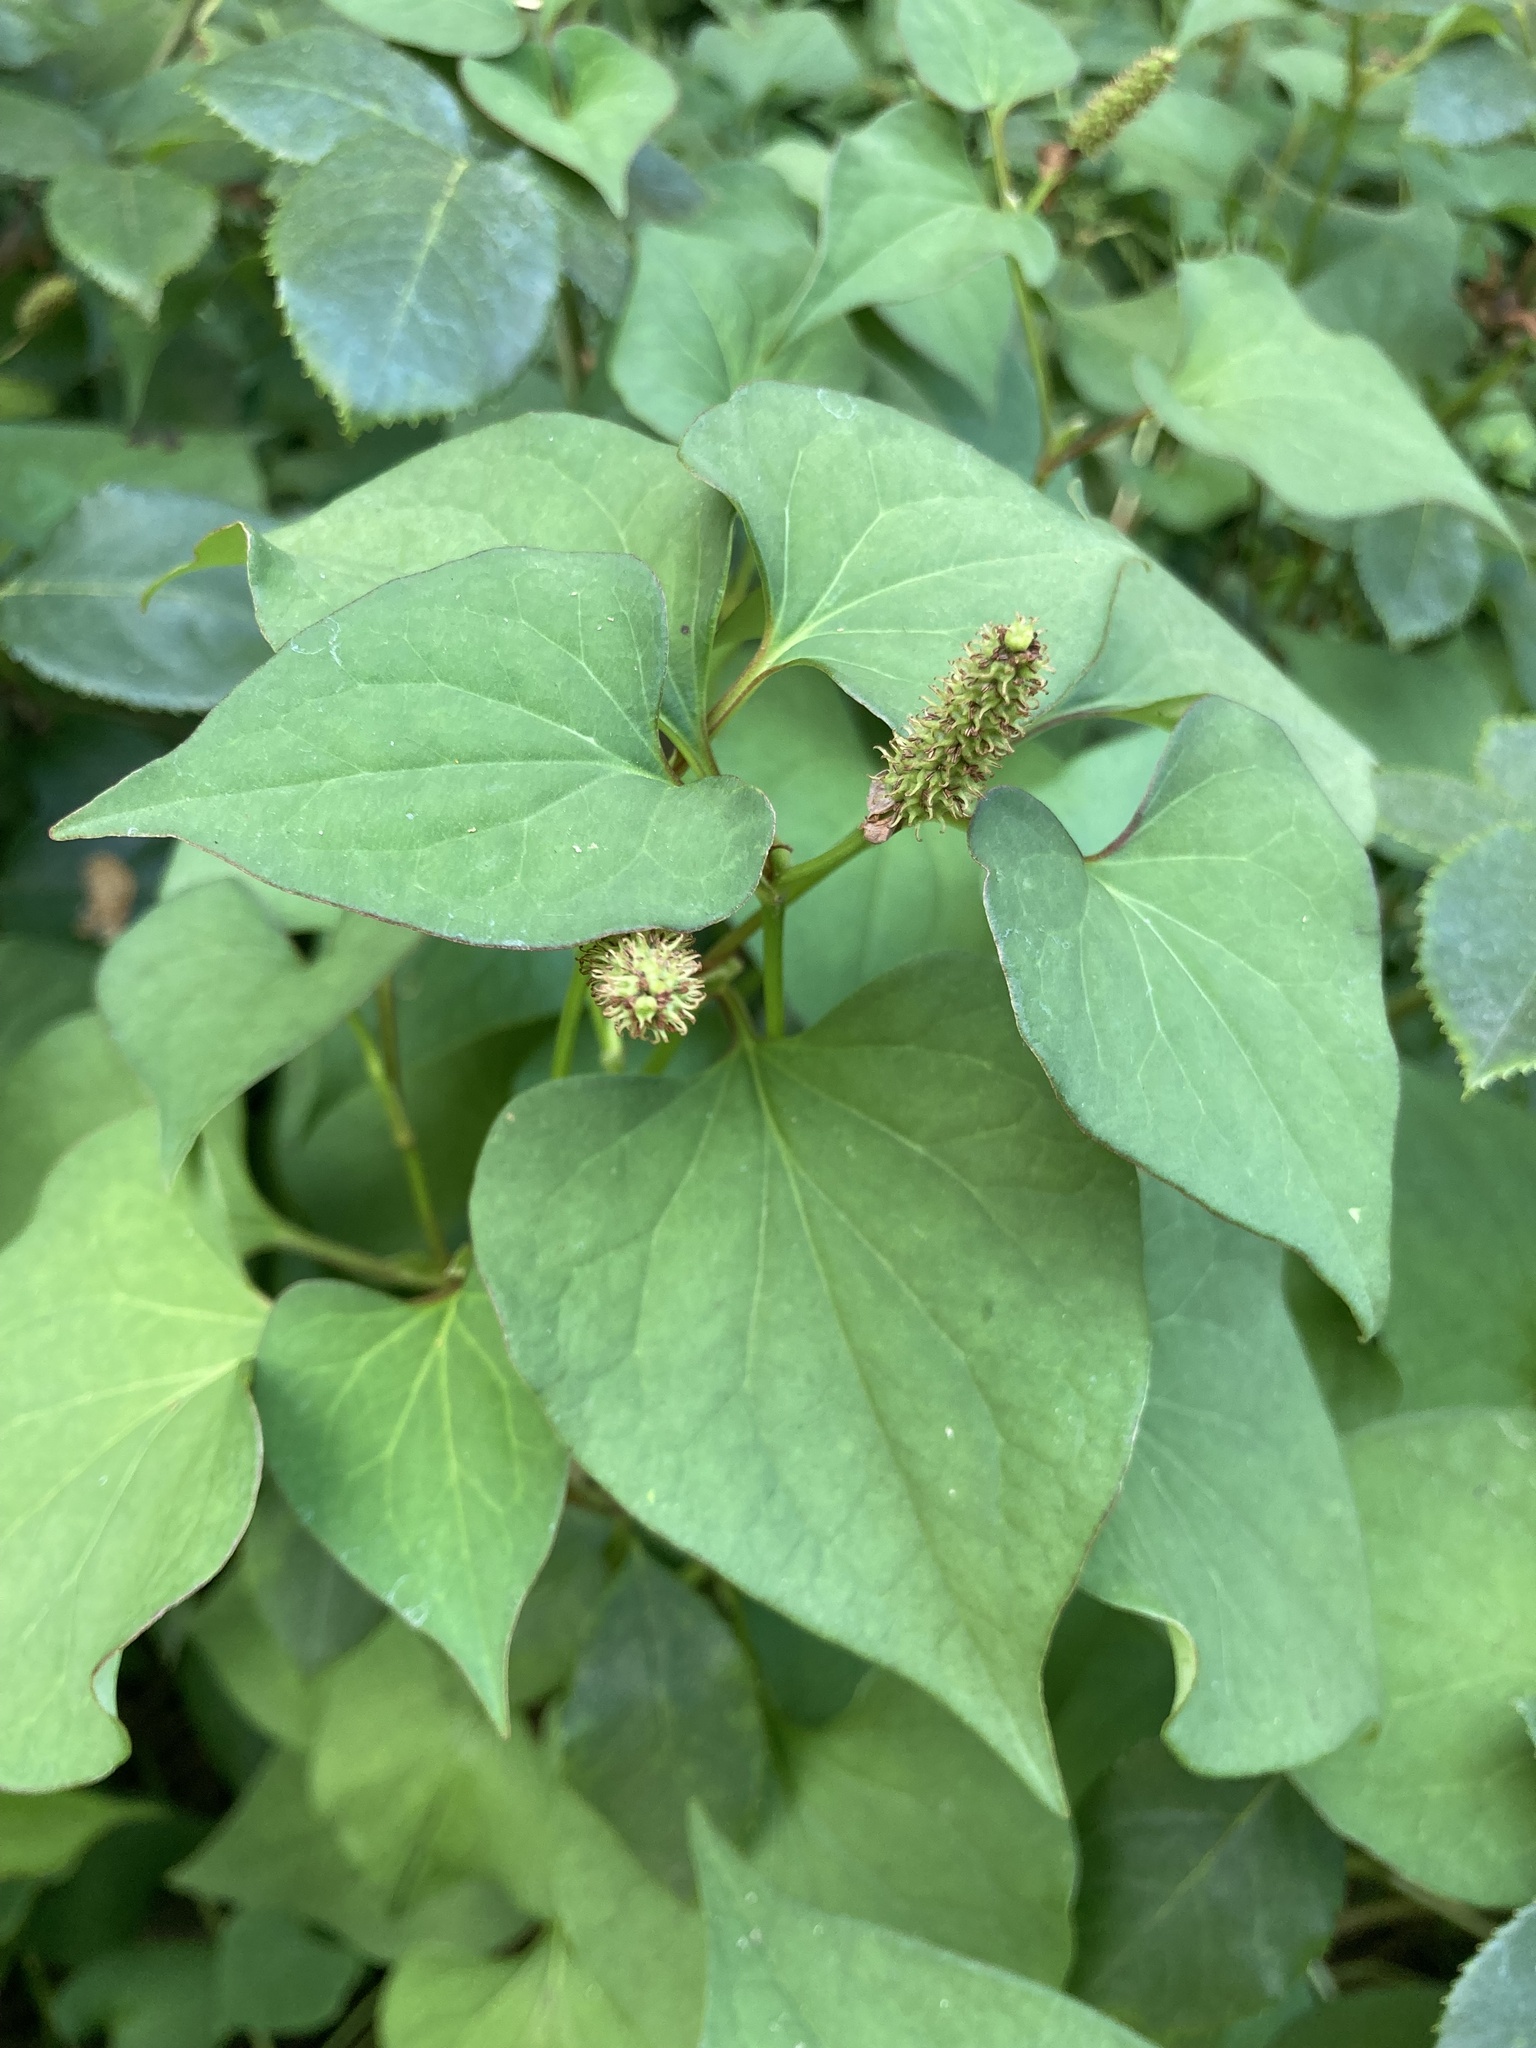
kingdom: Plantae
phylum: Tracheophyta
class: Magnoliopsida
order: Piperales
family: Saururaceae
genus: Houttuynia
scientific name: Houttuynia cordata
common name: Chameleon
